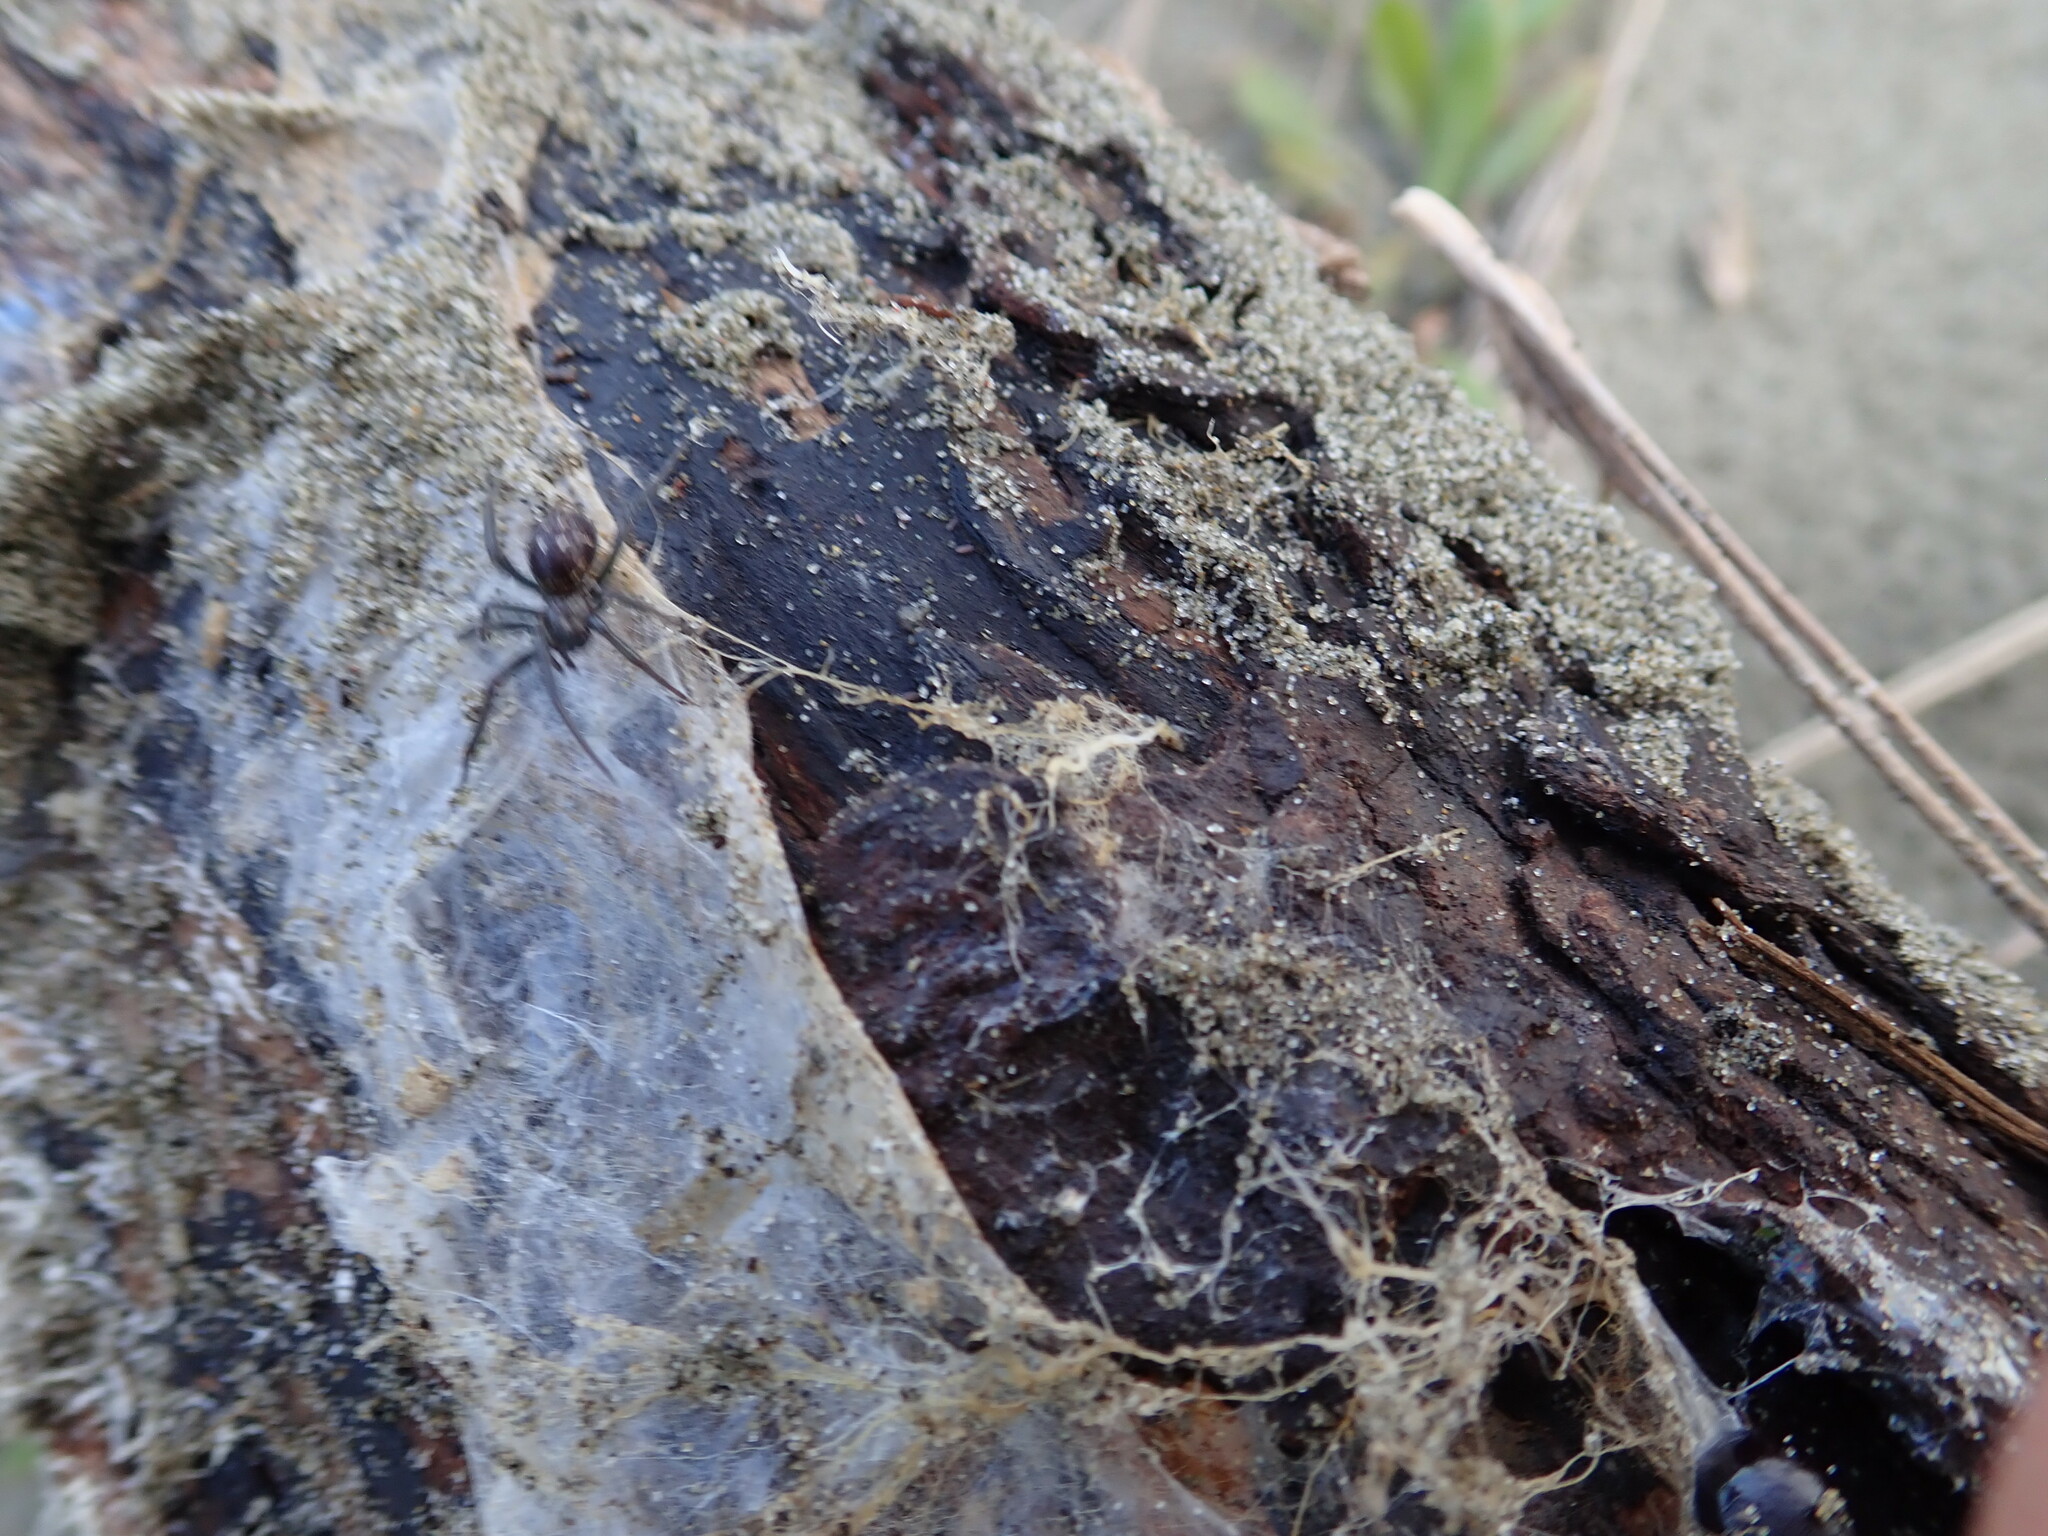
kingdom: Animalia
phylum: Arthropoda
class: Arachnida
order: Araneae
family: Porrhothelidae
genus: Porrhothele
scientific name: Porrhothele antipodiana
